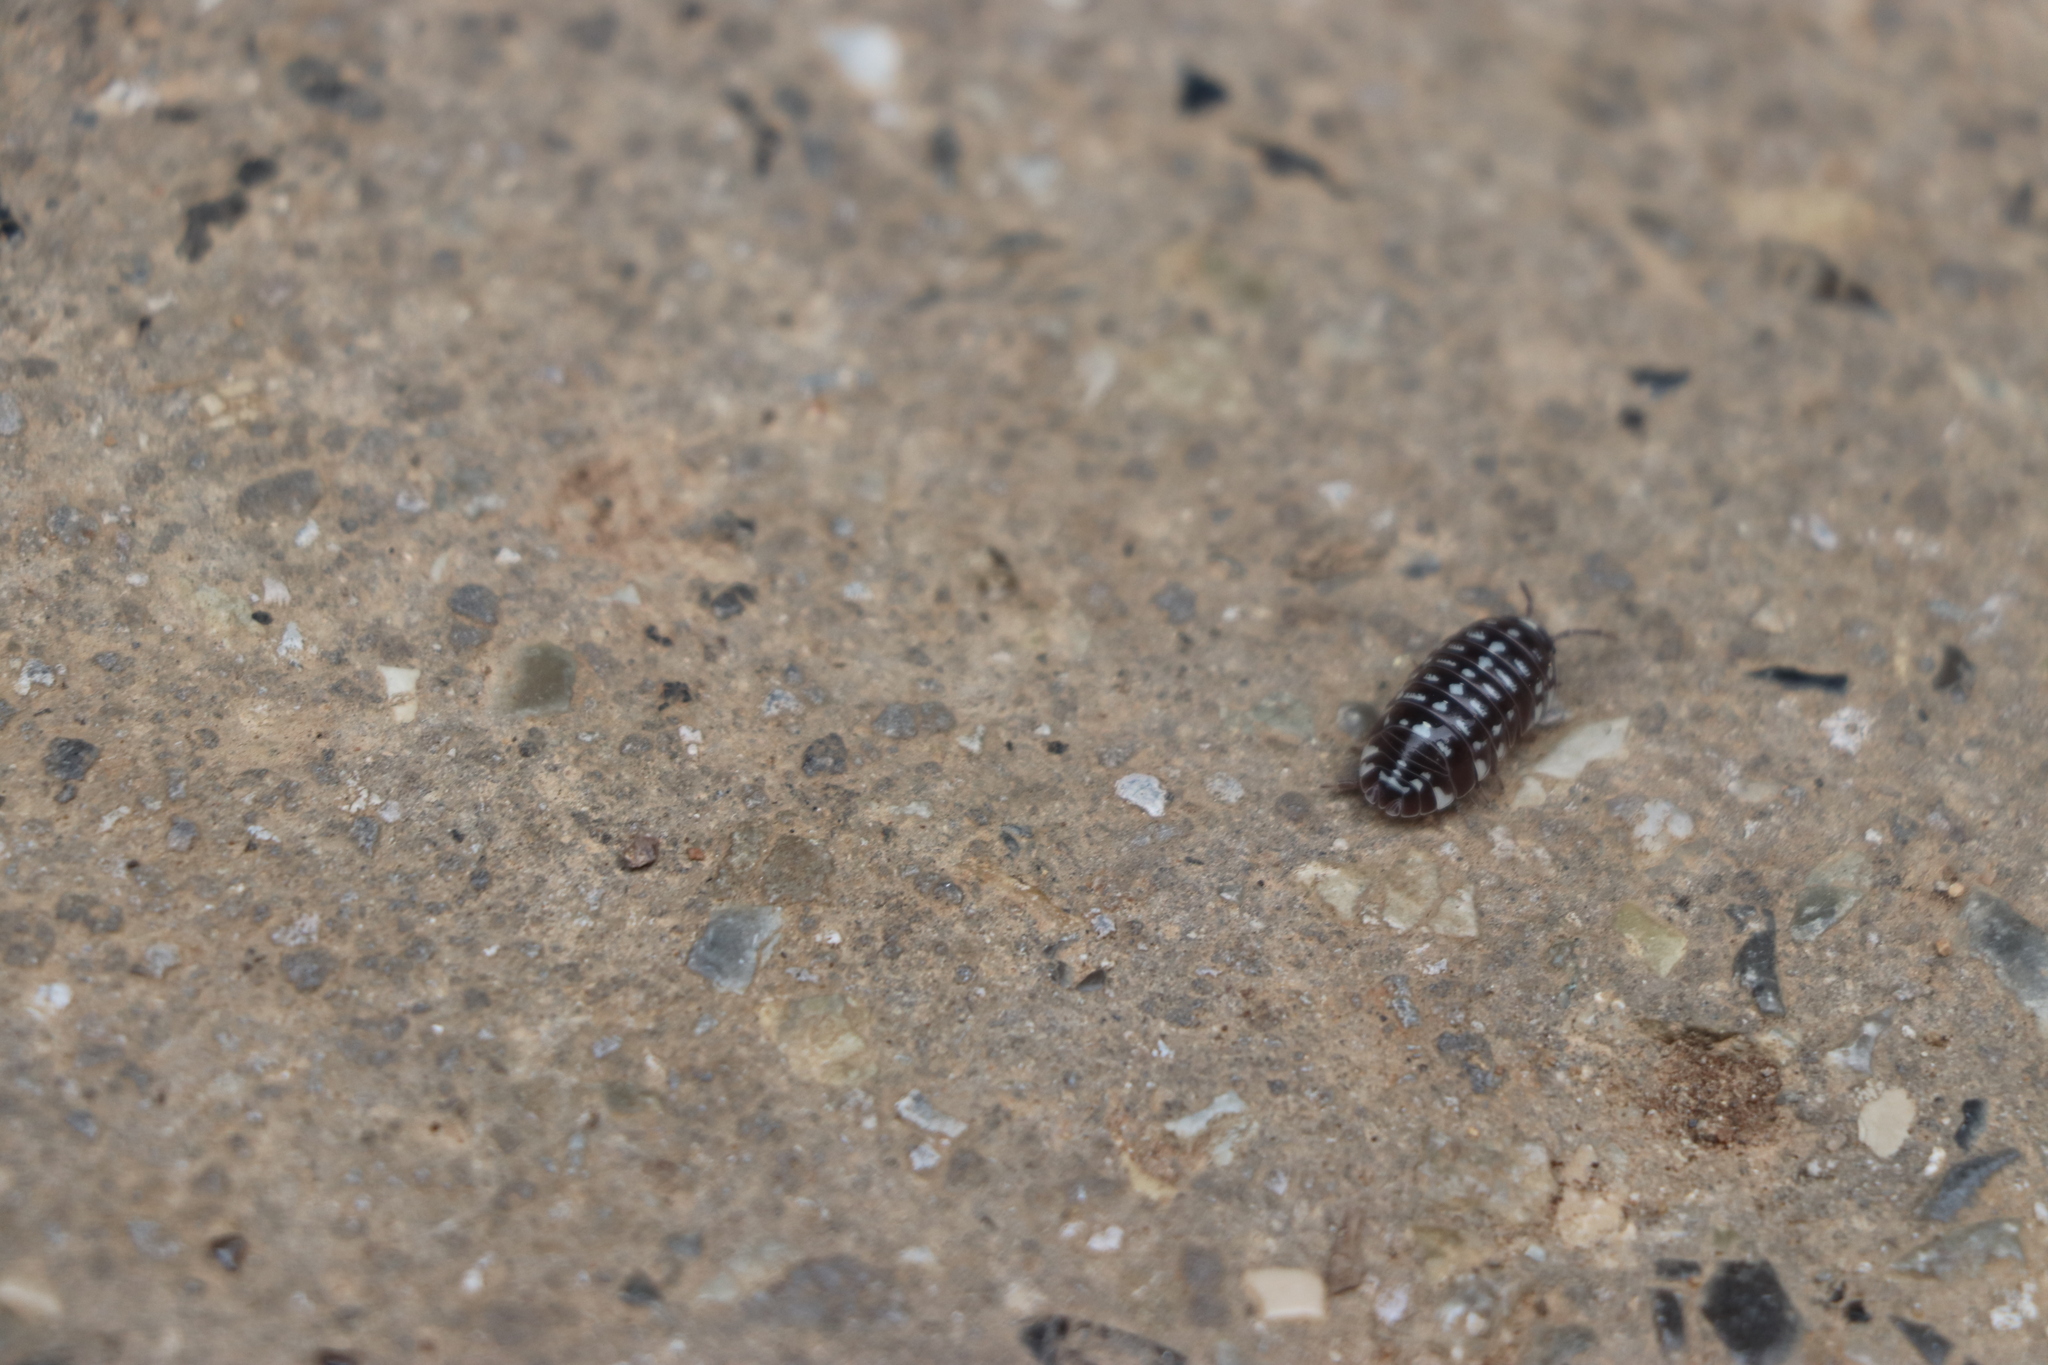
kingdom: Animalia
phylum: Arthropoda
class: Malacostraca
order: Isopoda
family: Armadillidiidae
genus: Armadillidium
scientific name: Armadillidium maculatum
